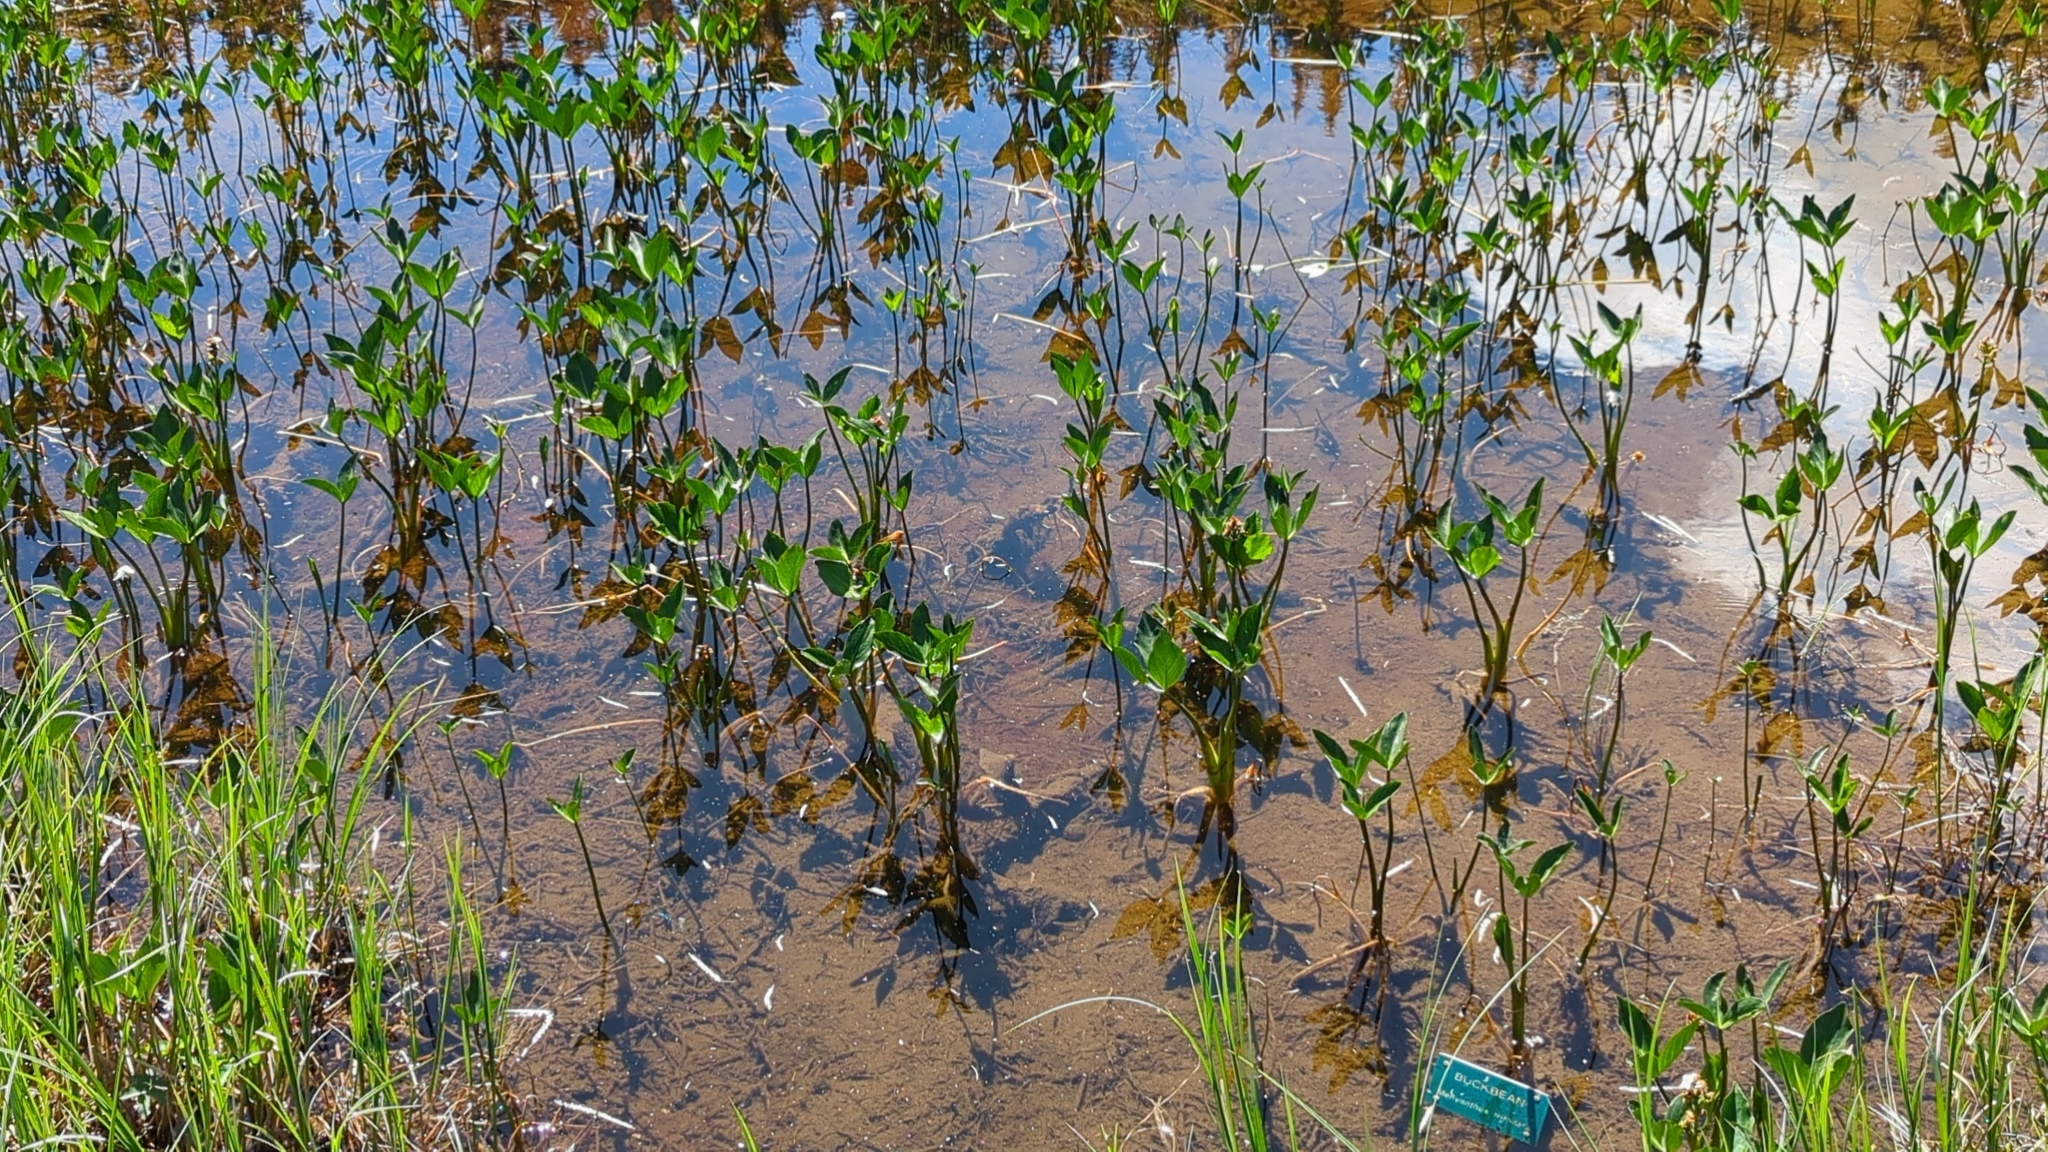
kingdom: Plantae
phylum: Tracheophyta
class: Magnoliopsida
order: Asterales
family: Menyanthaceae
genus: Menyanthes
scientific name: Menyanthes trifoliata
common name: Bogbean
